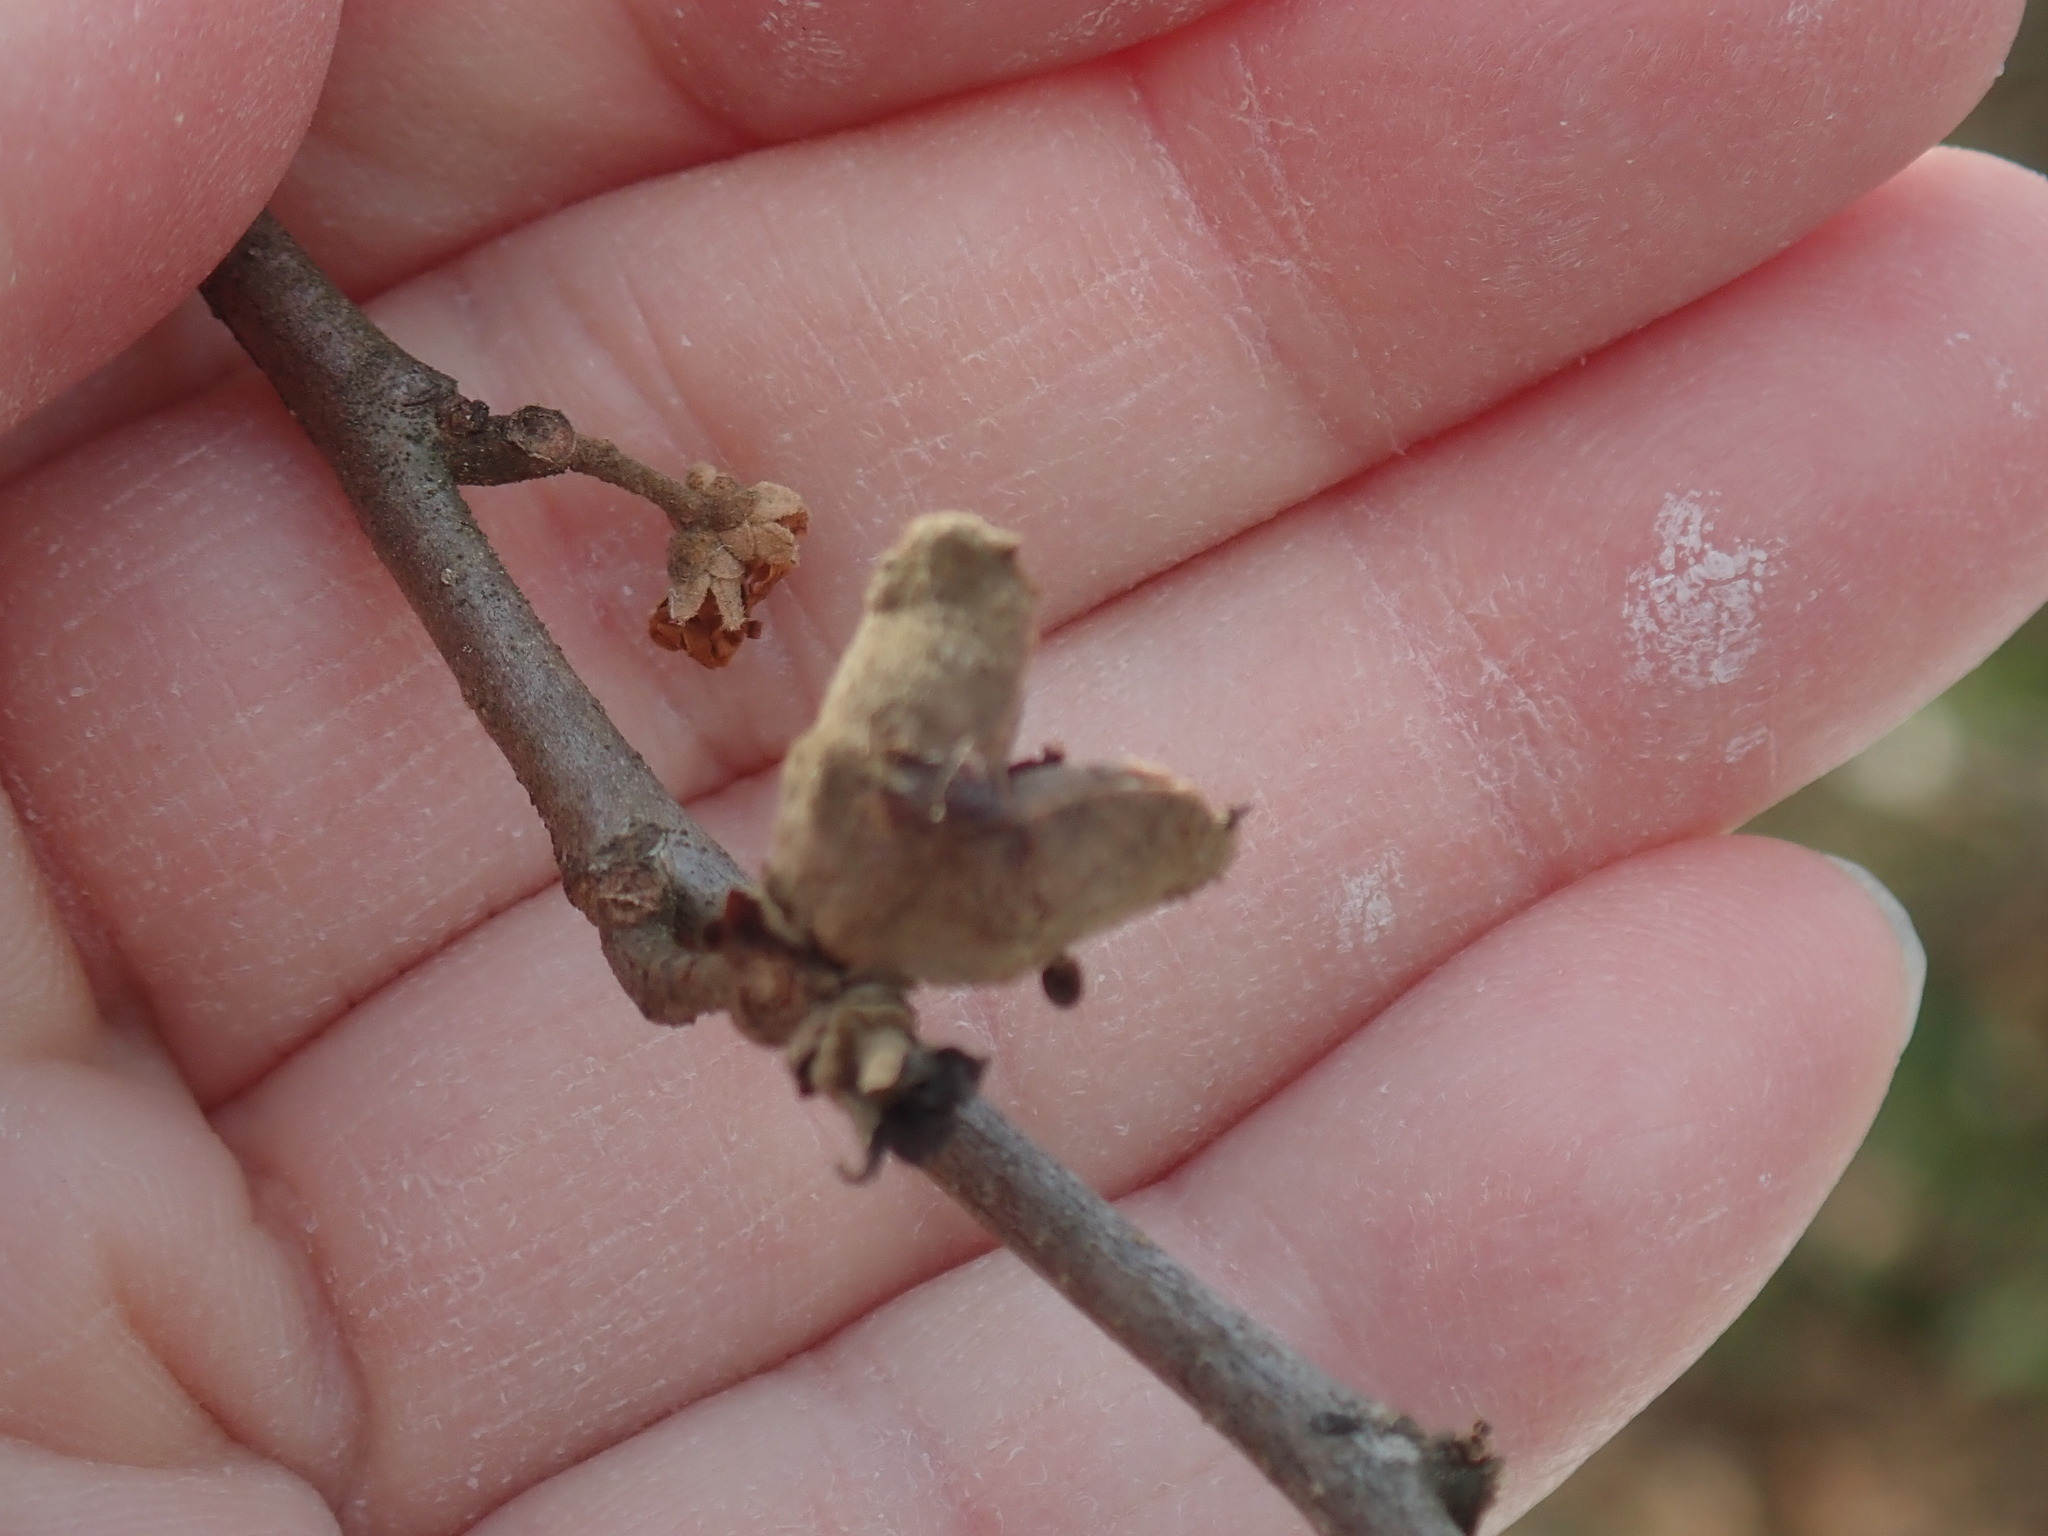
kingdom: Plantae
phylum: Tracheophyta
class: Magnoliopsida
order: Saxifragales
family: Hamamelidaceae
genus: Hamamelis
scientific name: Hamamelis virginiana
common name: Witch-hazel
